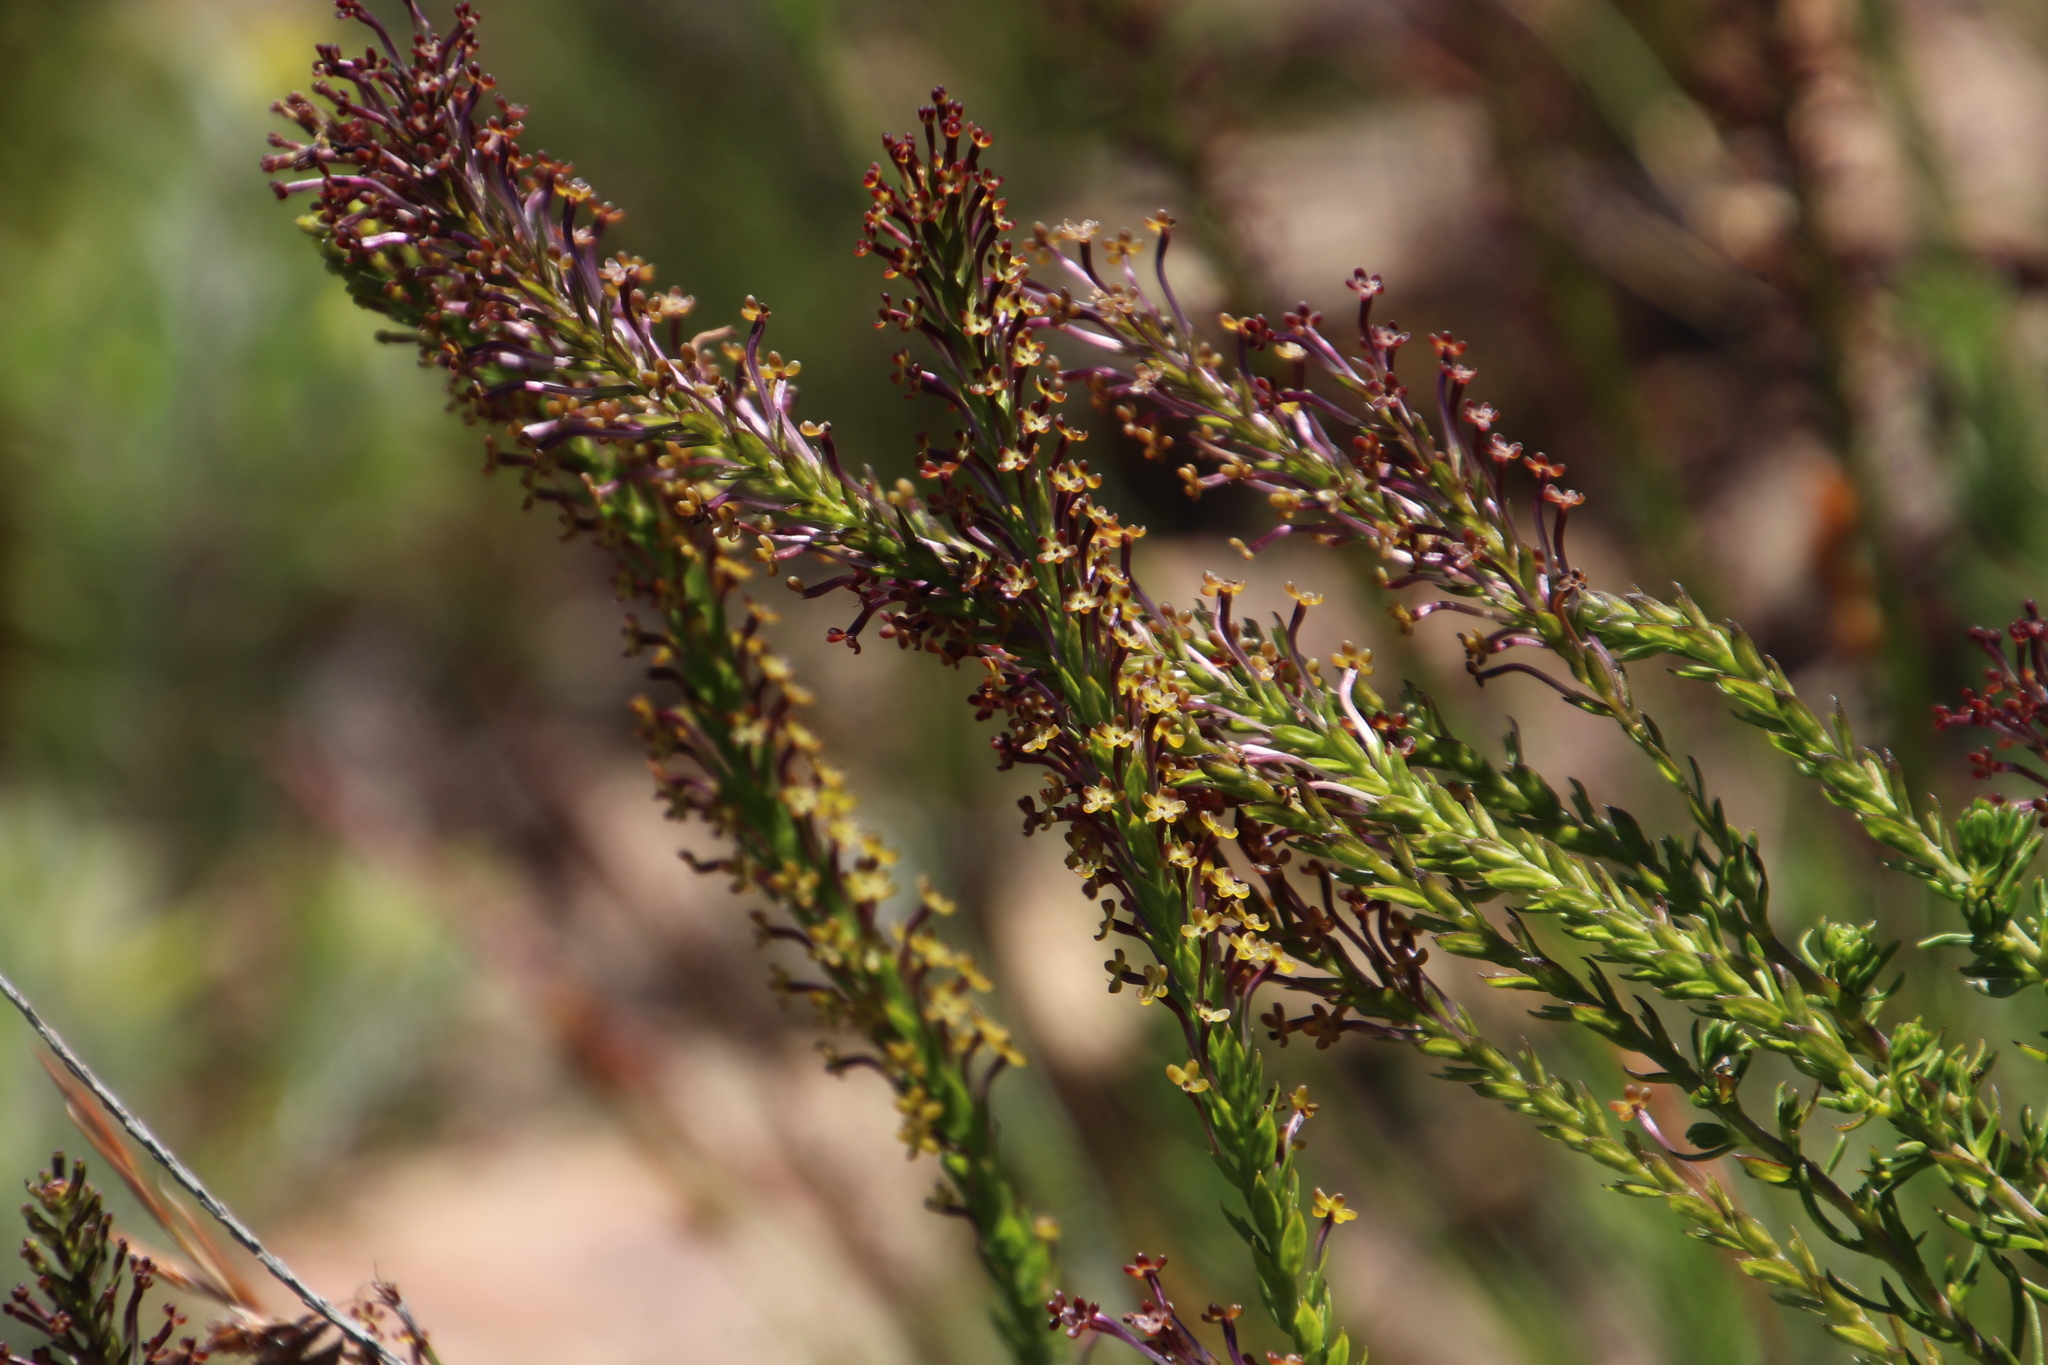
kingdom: Plantae
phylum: Tracheophyta
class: Magnoliopsida
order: Lamiales
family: Scrophulariaceae
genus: Microdon
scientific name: Microdon dubius
